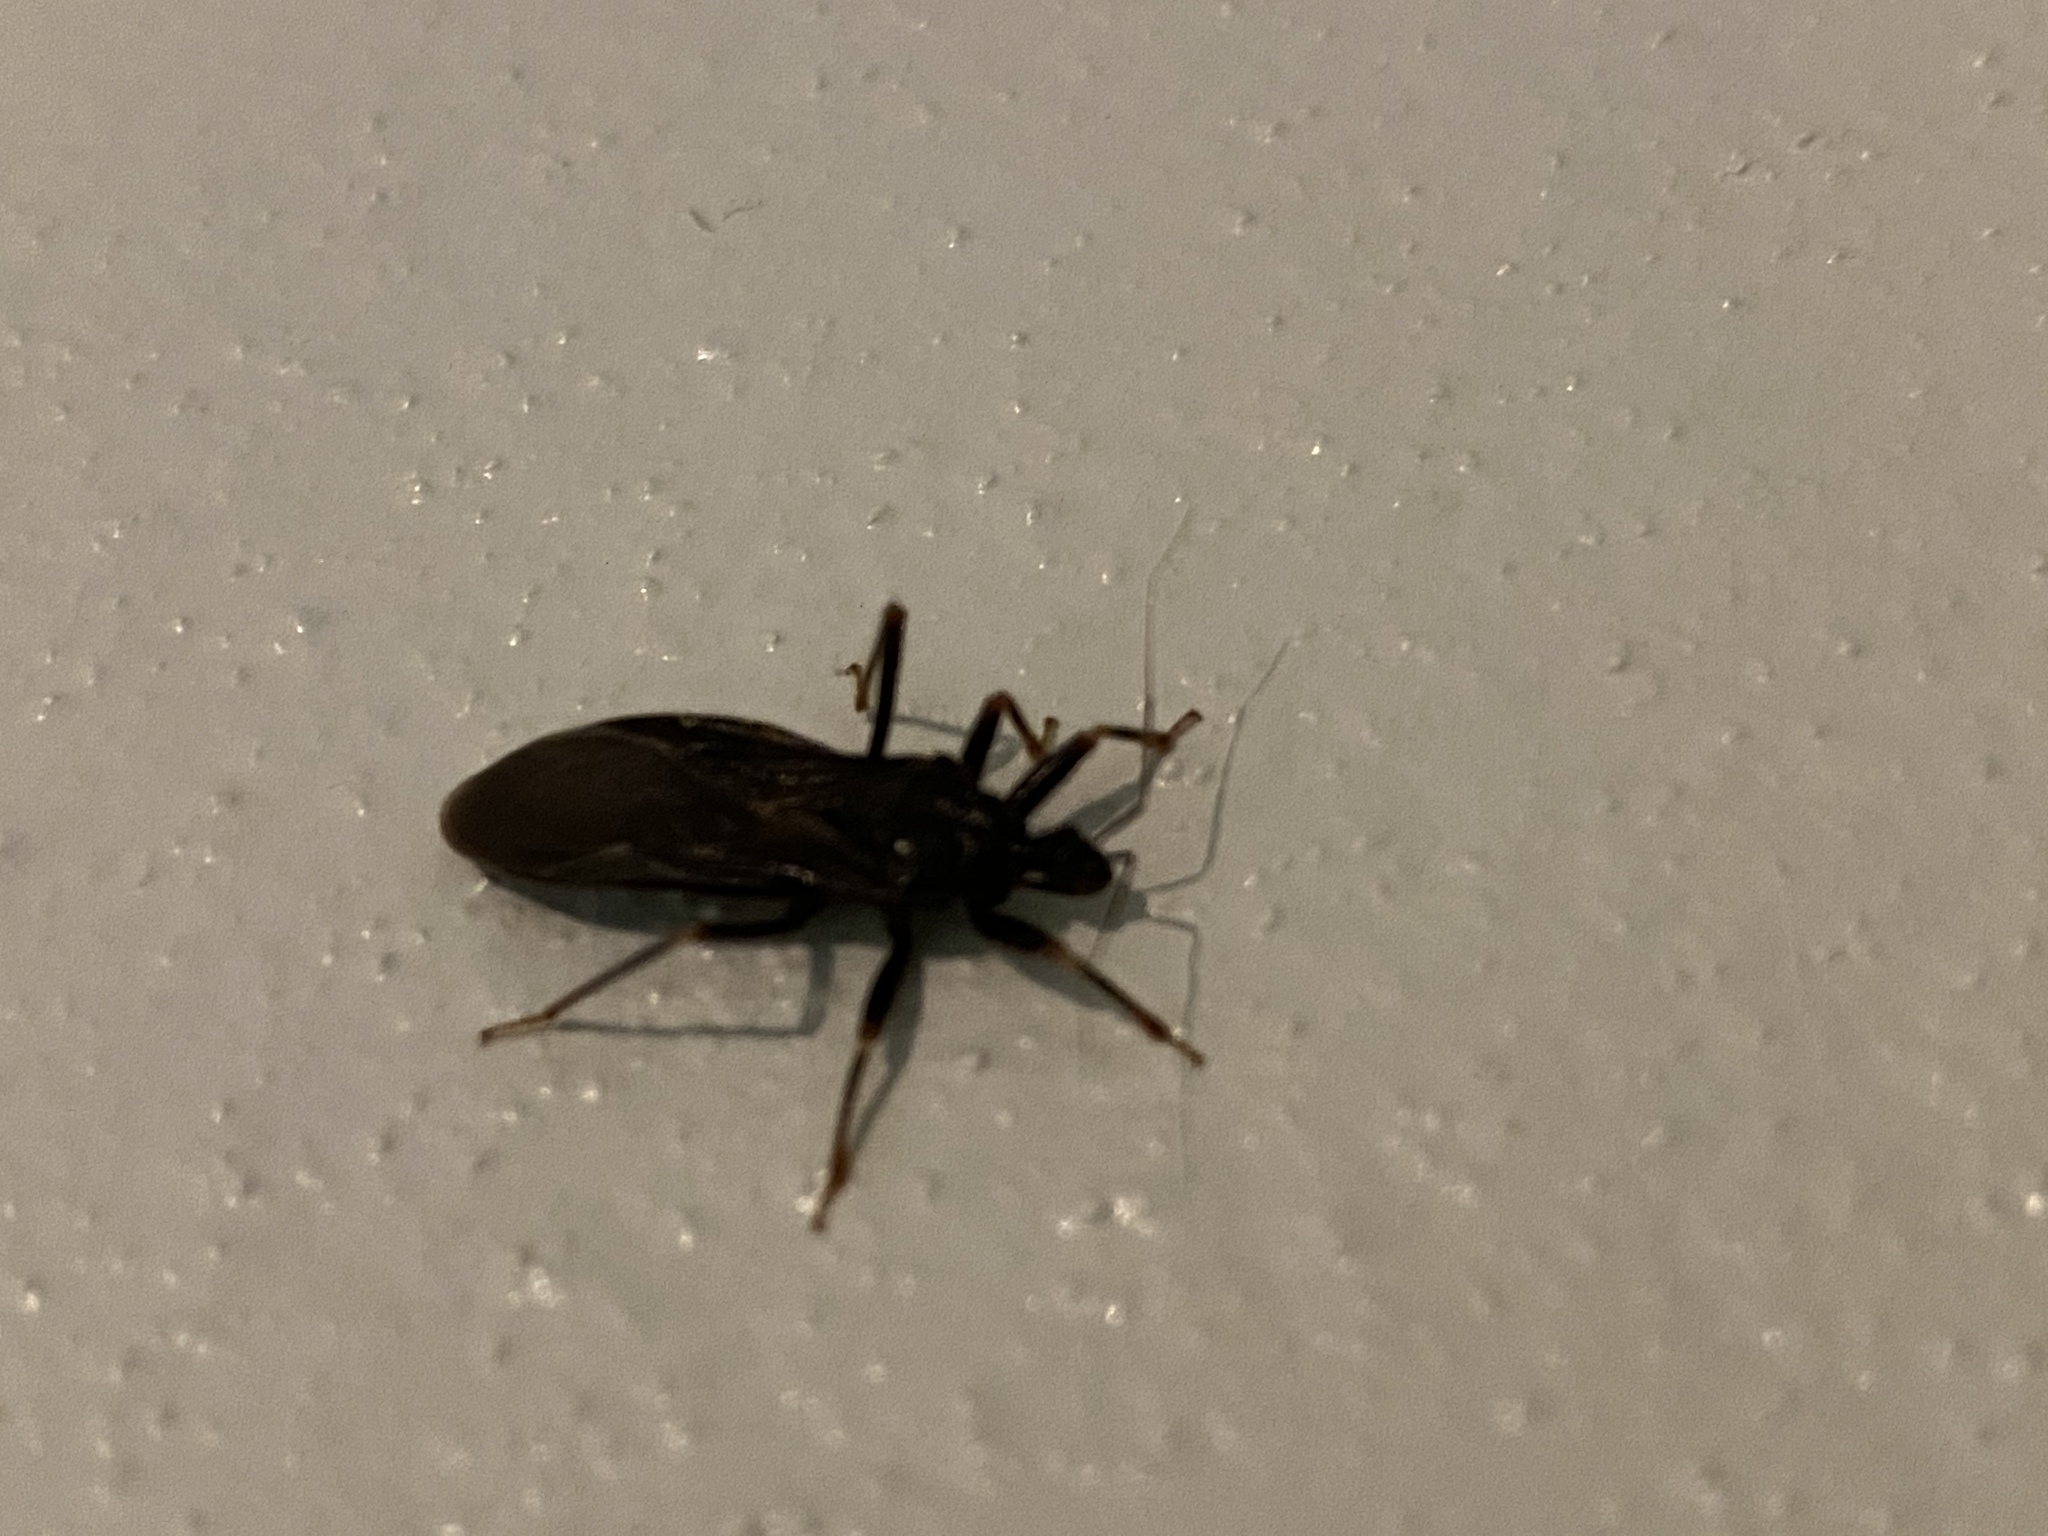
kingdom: Animalia
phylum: Arthropoda
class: Insecta
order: Hemiptera
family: Reduviidae
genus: Reduvius
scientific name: Reduvius personatus
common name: Masked hunter
